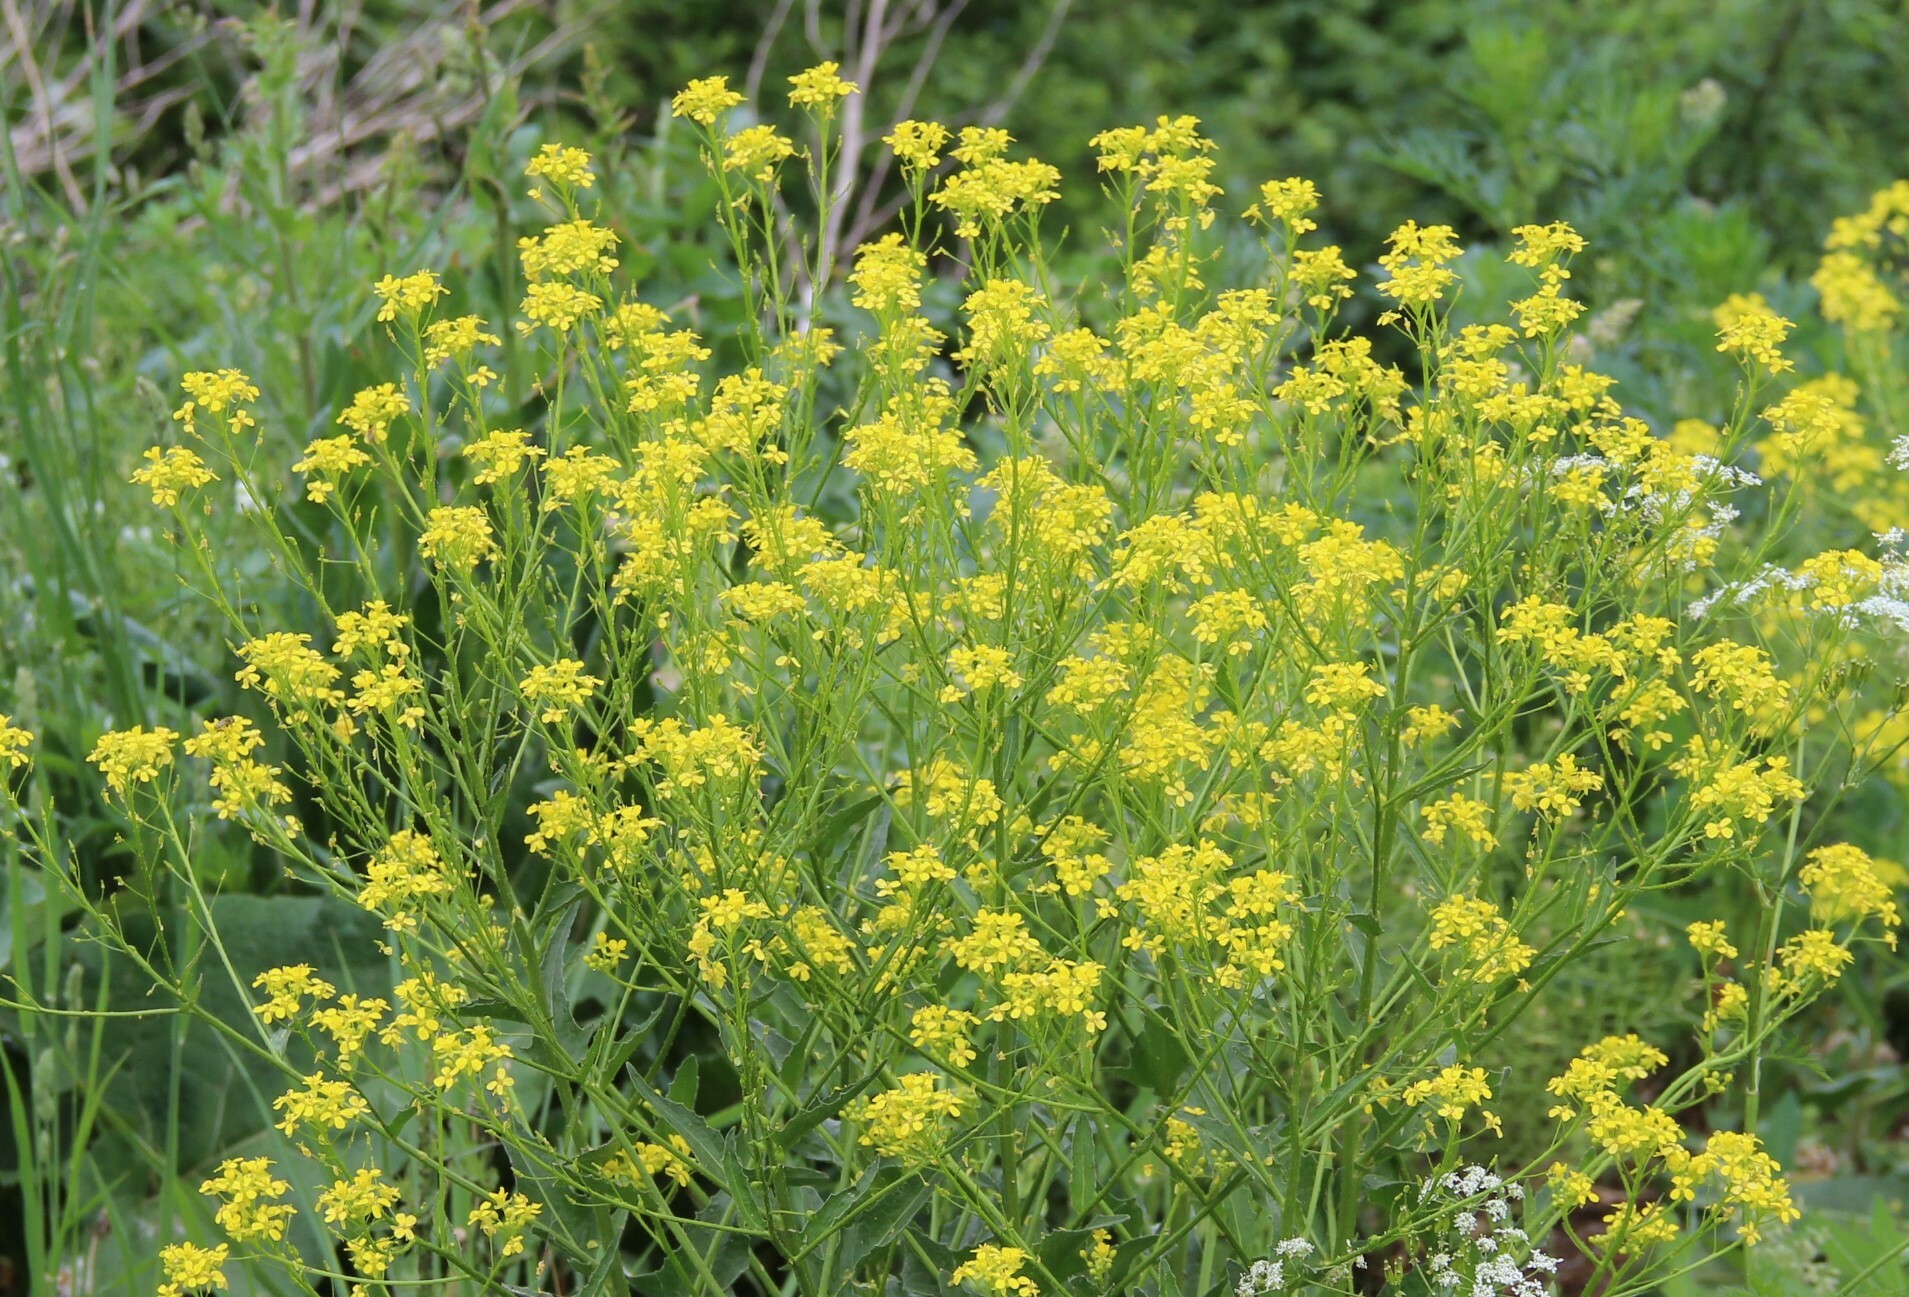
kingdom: Plantae
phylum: Tracheophyta
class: Magnoliopsida
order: Brassicales
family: Brassicaceae
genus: Bunias
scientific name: Bunias orientalis
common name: Warty-cabbage
